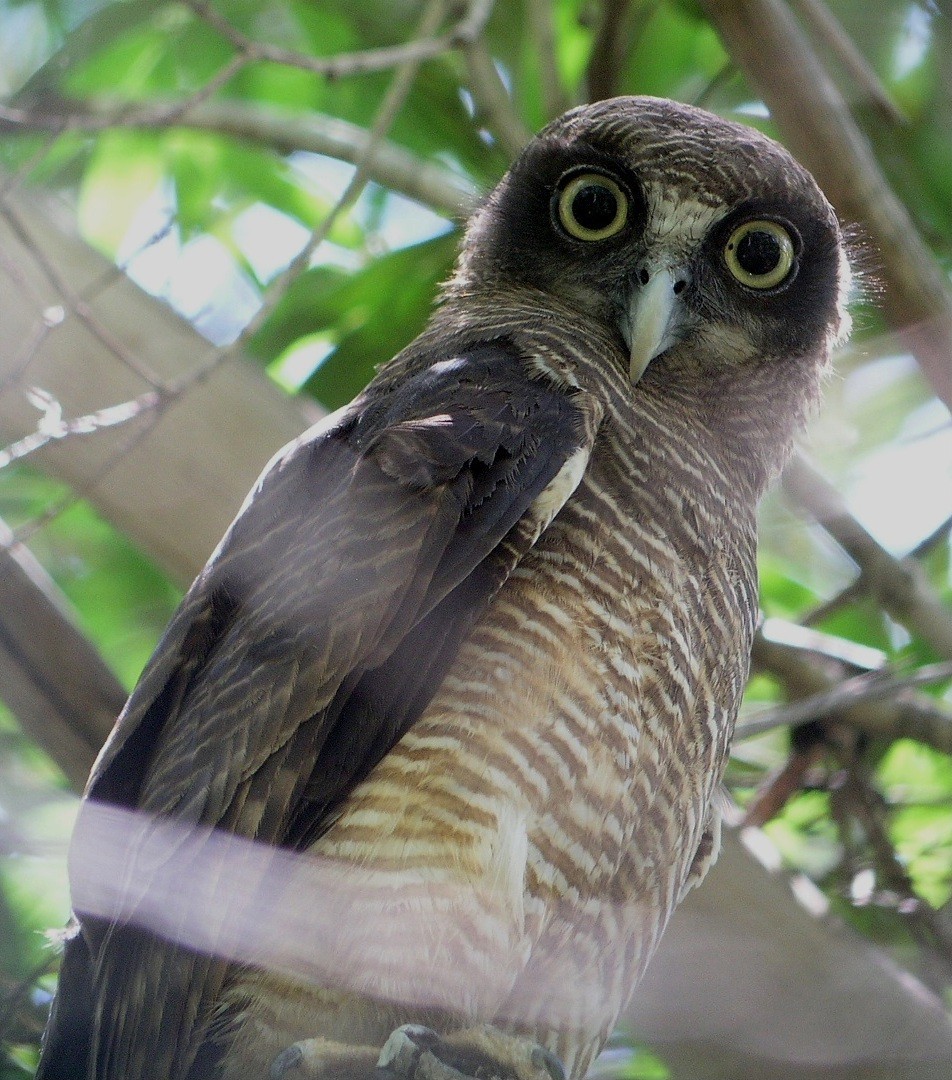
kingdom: Animalia
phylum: Chordata
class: Aves
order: Strigiformes
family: Strigidae
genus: Ninox
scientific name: Ninox rufa
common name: Rufous owl
